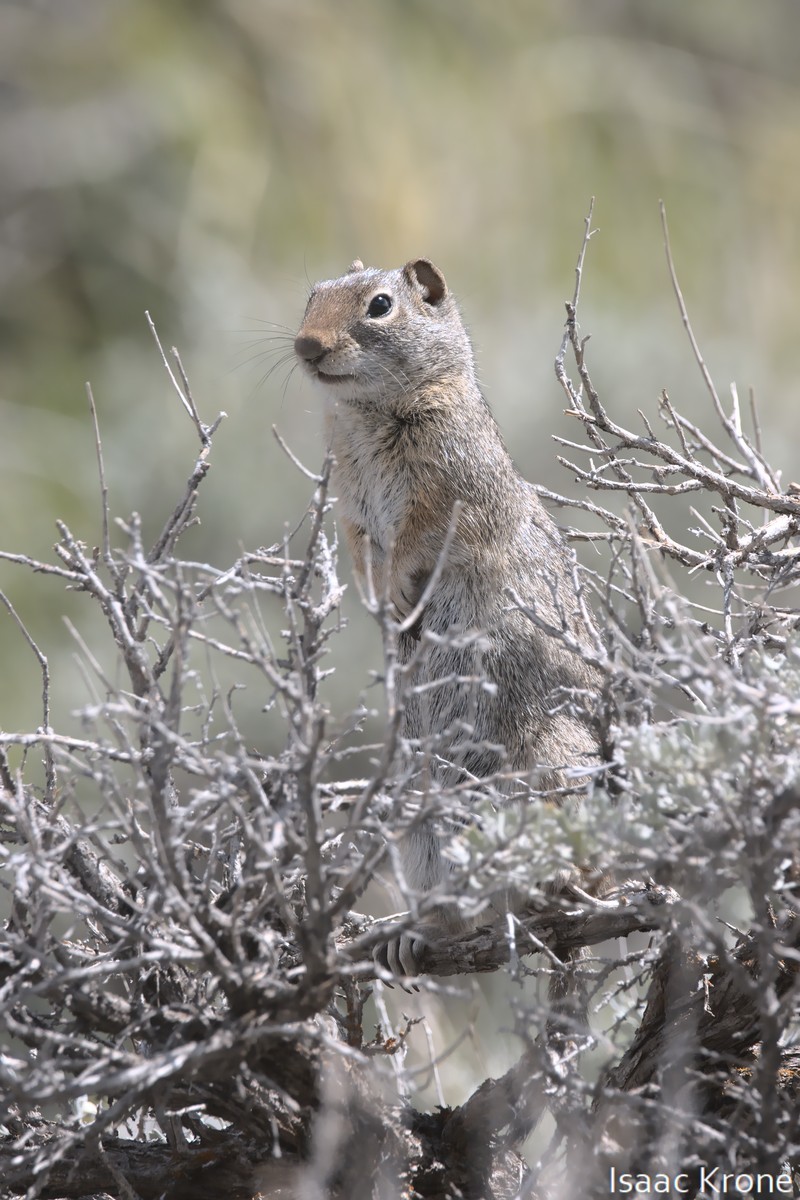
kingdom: Animalia
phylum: Chordata
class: Mammalia
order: Rodentia
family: Sciuridae
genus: Urocitellus
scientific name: Urocitellus armatus
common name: Uinta ground squirrel
